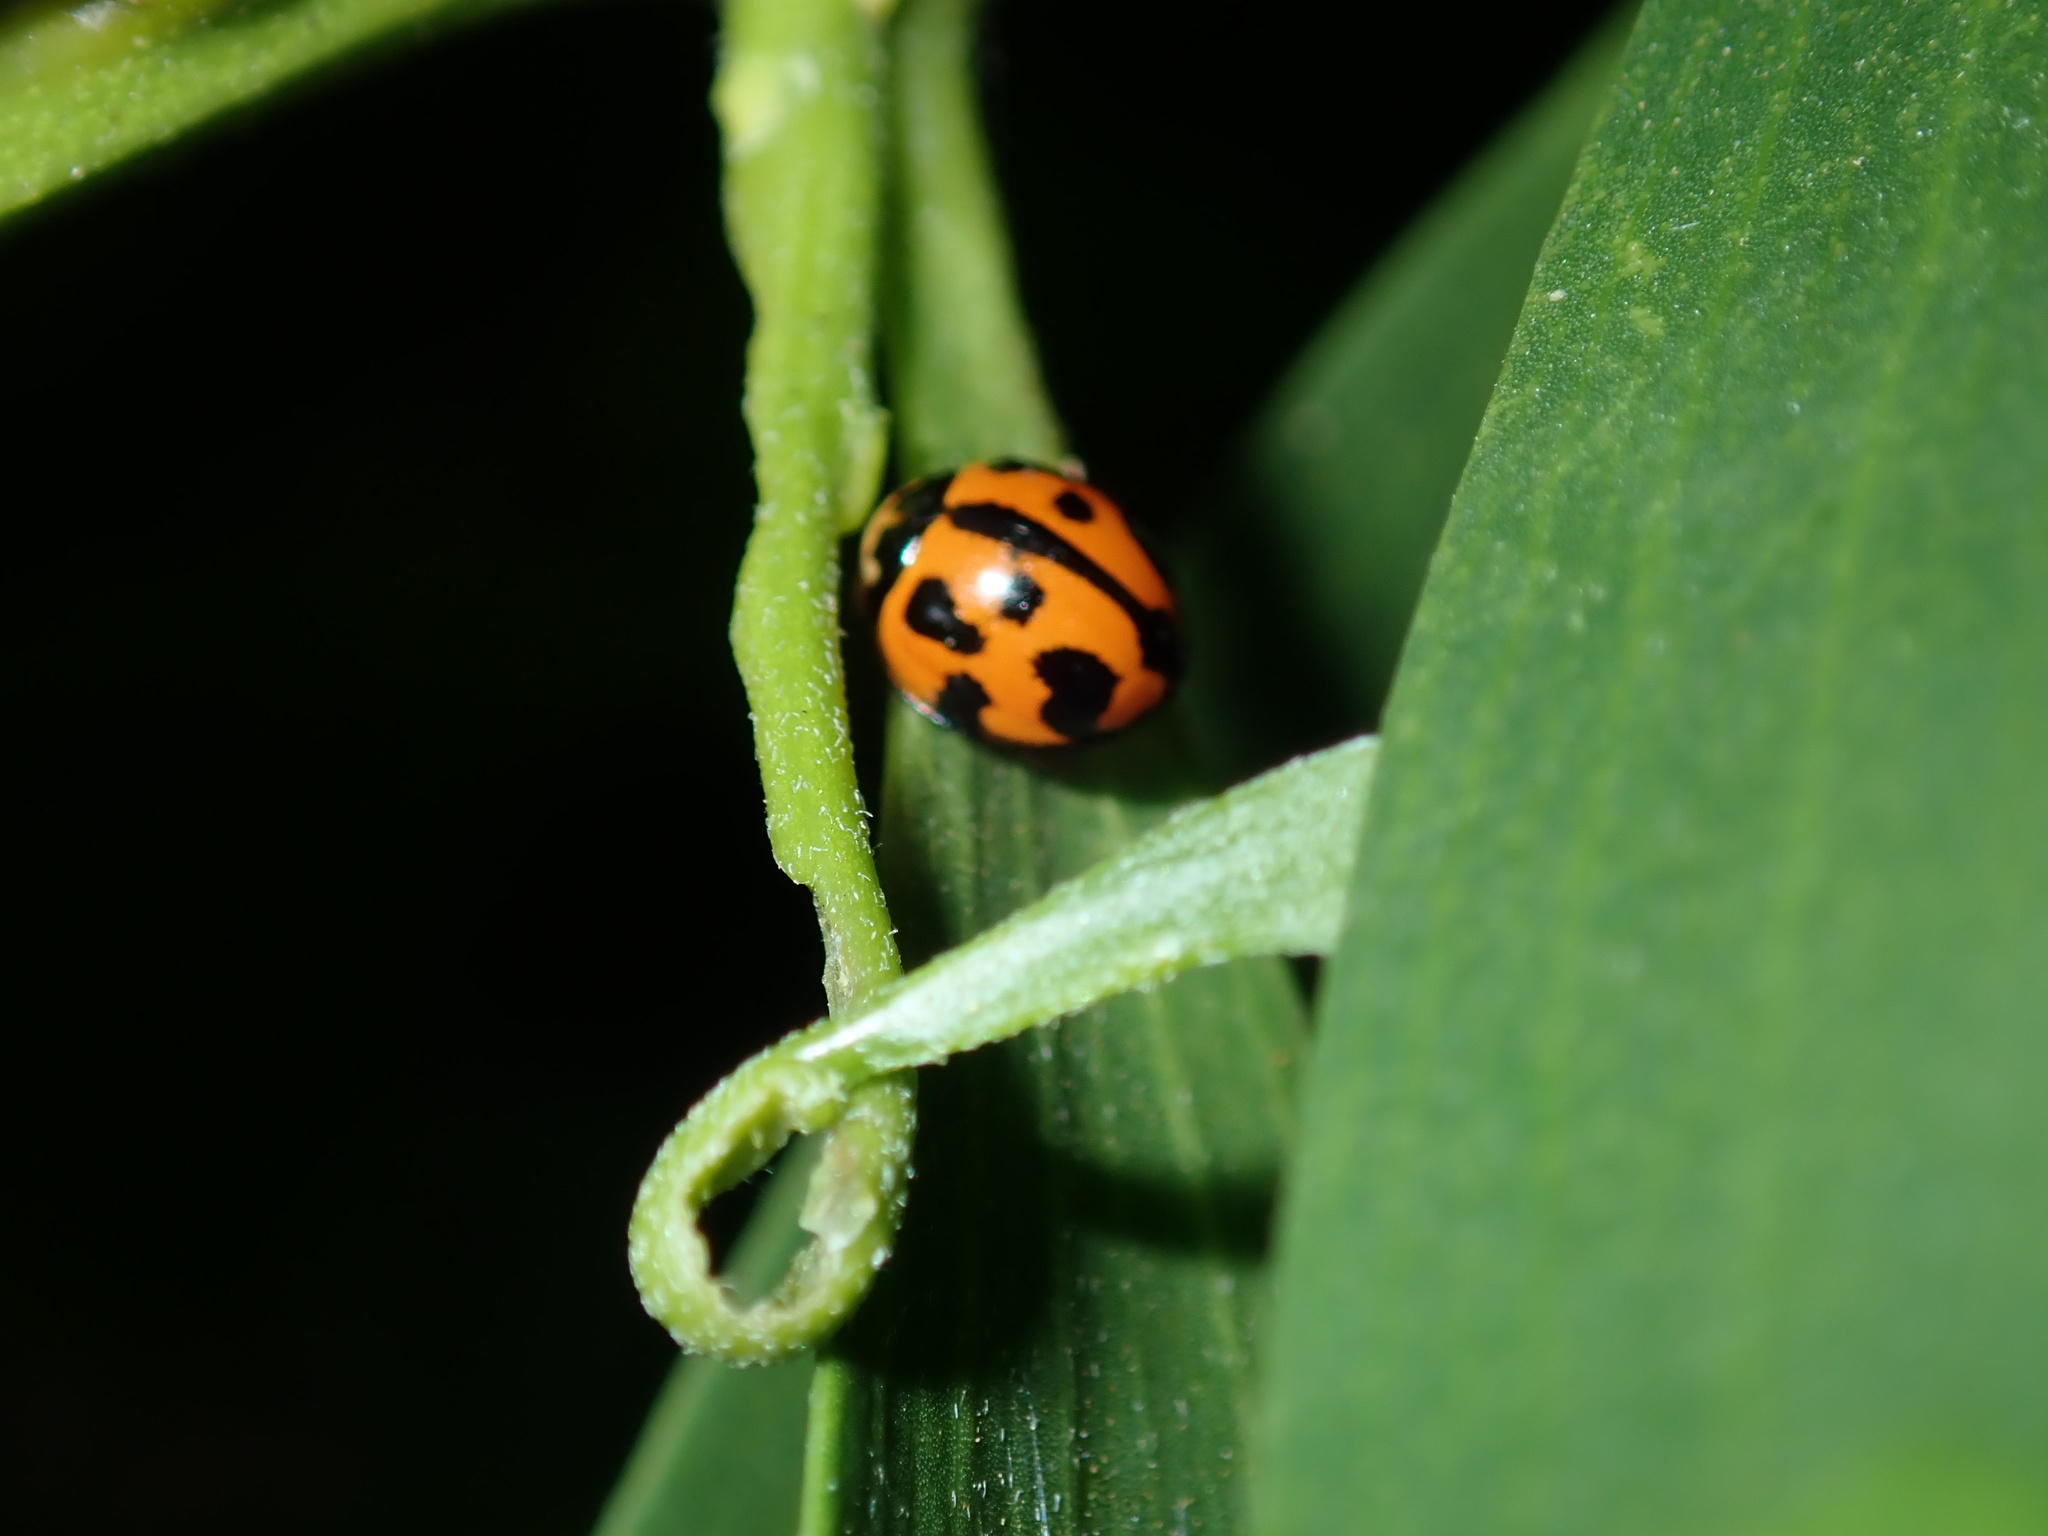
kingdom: Animalia
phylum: Arthropoda
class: Insecta
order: Coleoptera
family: Coccinellidae
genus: Coelophora
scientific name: Coelophora inaequalis
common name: Common australian lady beetle
